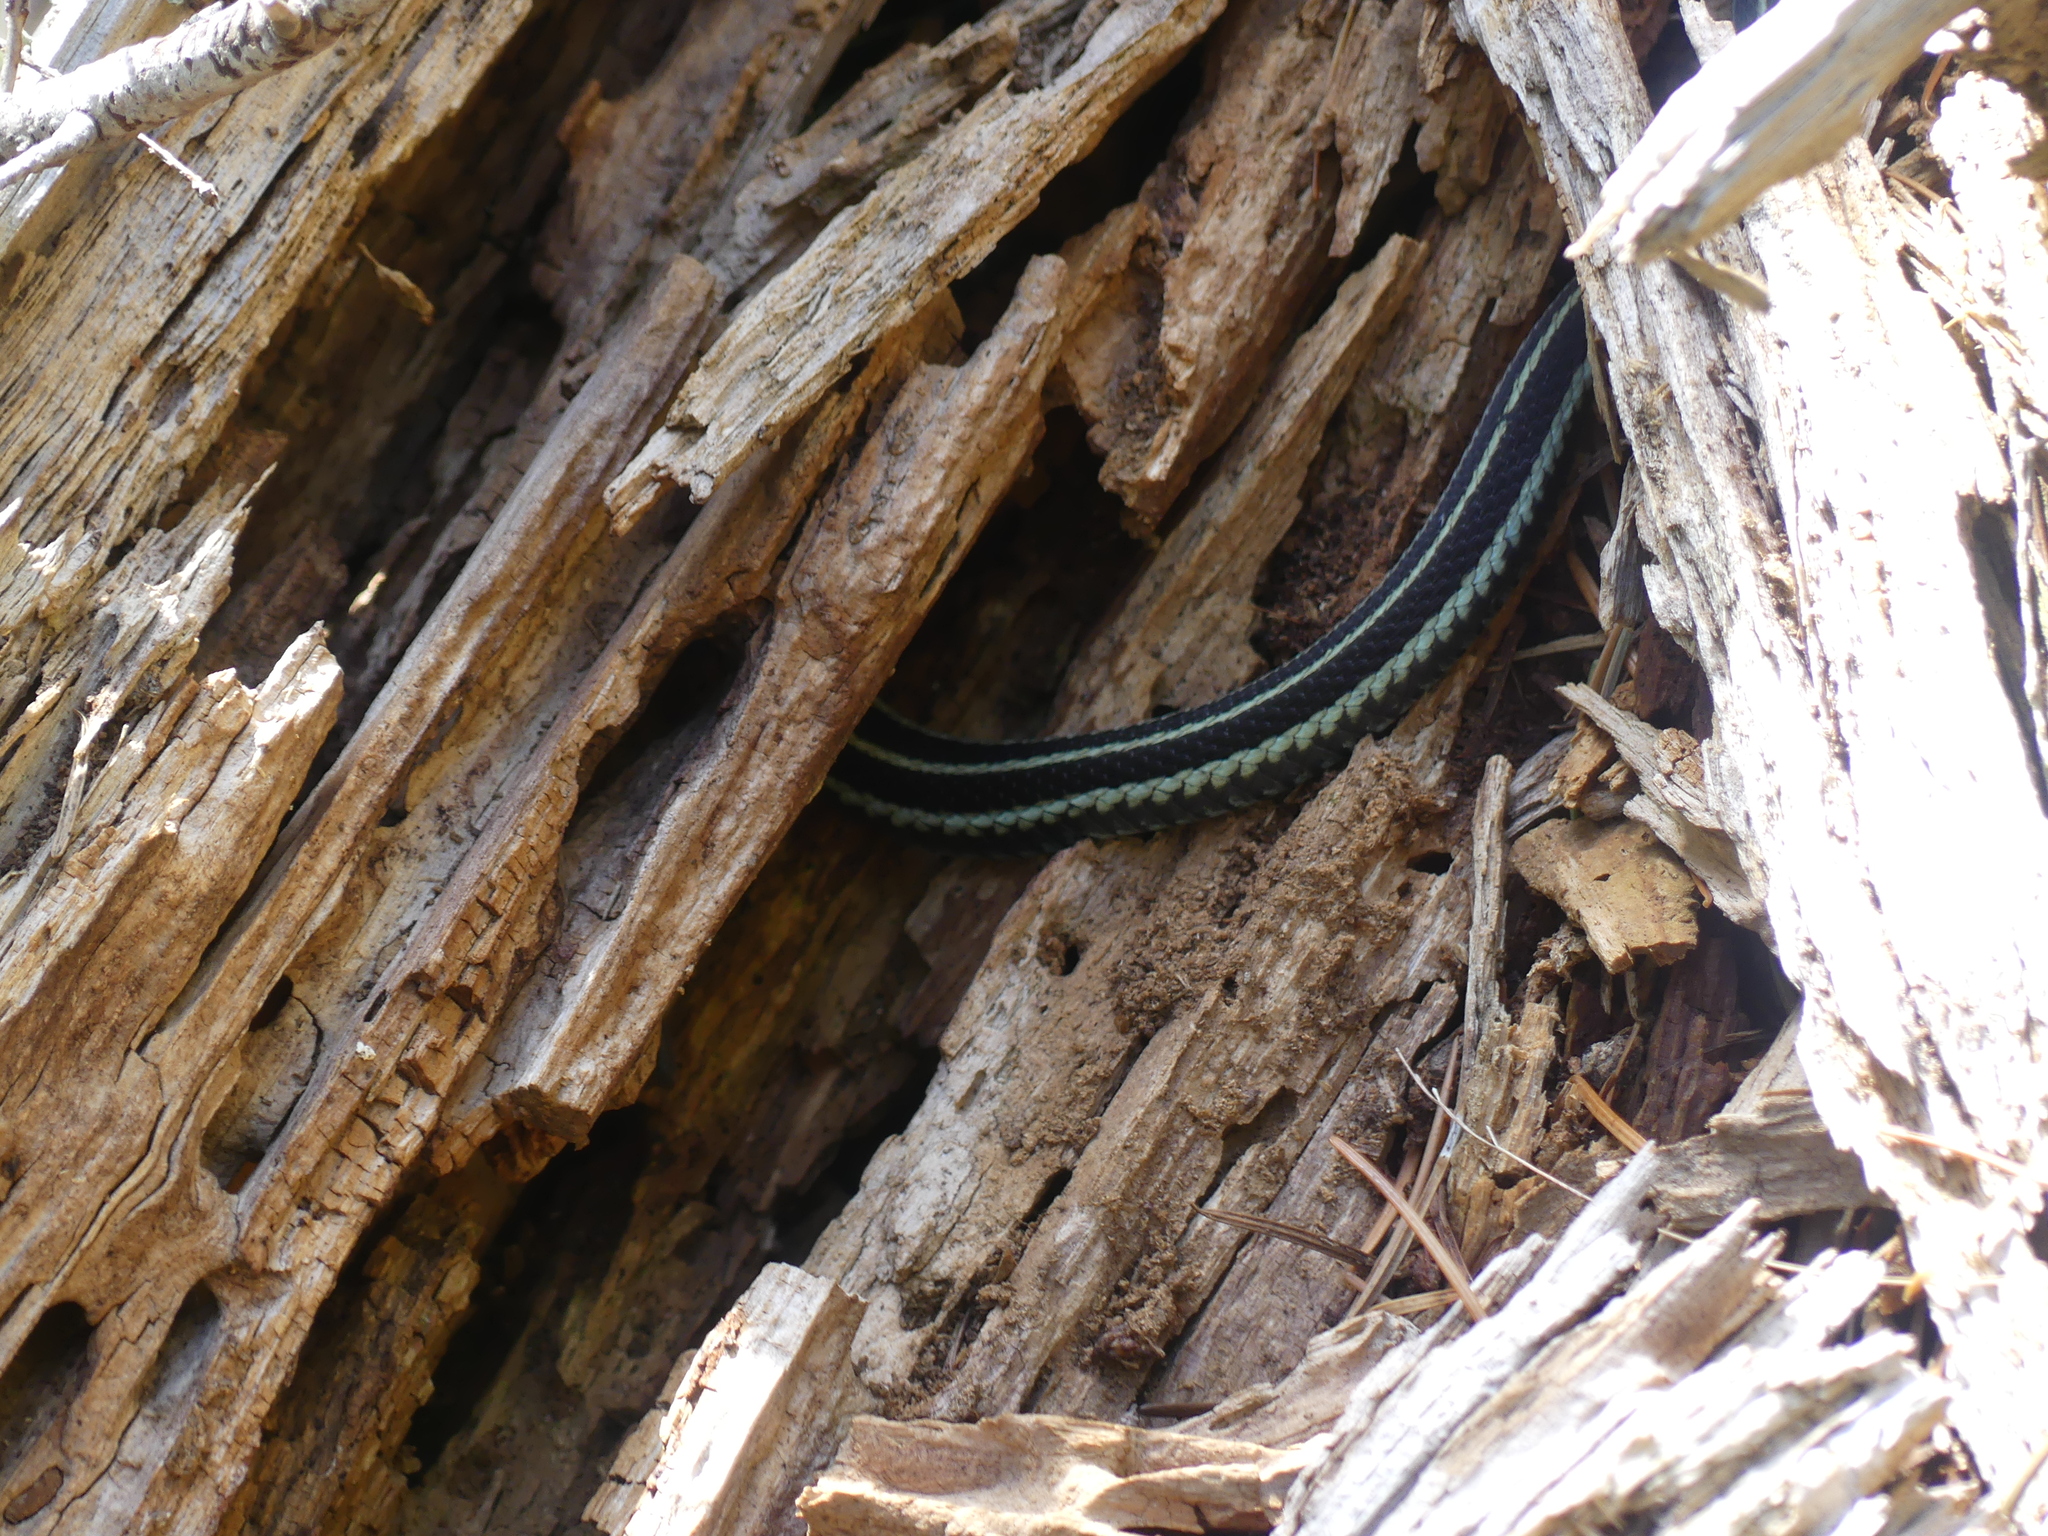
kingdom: Animalia
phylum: Chordata
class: Squamata
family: Colubridae
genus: Thamnophis
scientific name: Thamnophis sirtalis
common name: Common garter snake
